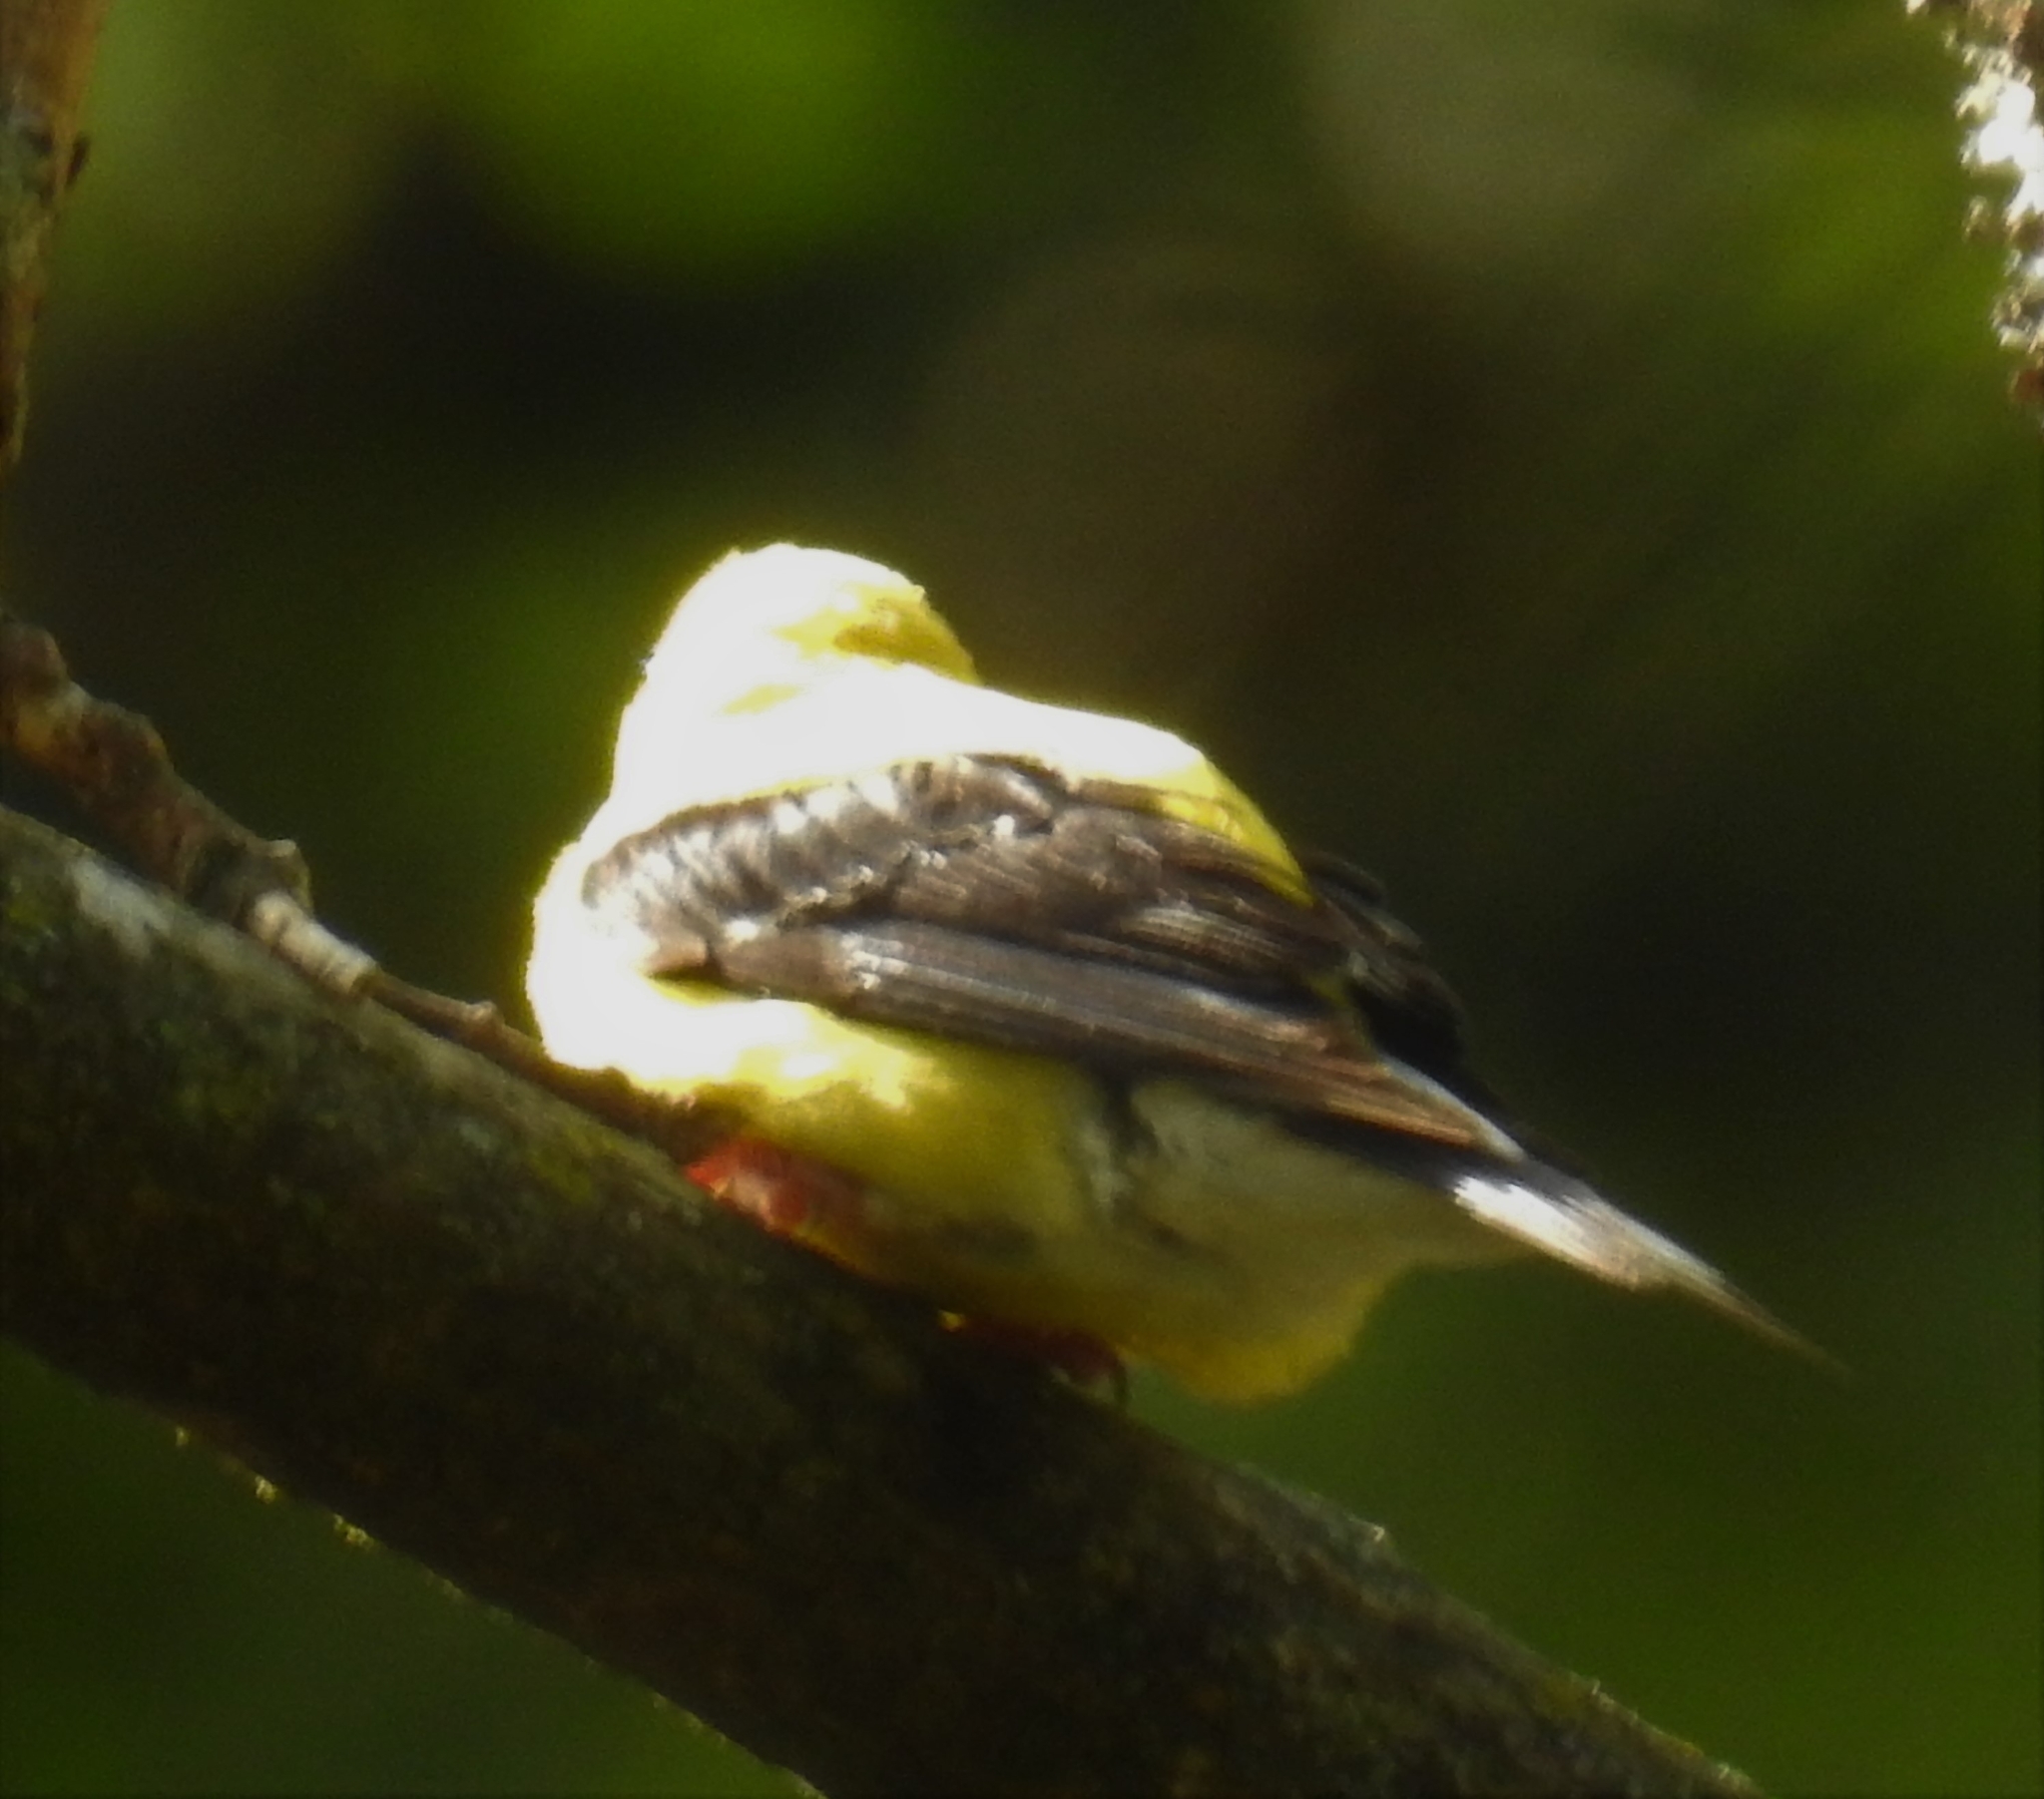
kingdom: Animalia
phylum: Chordata
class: Aves
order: Passeriformes
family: Fringillidae
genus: Spinus
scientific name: Spinus tristis
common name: American goldfinch
